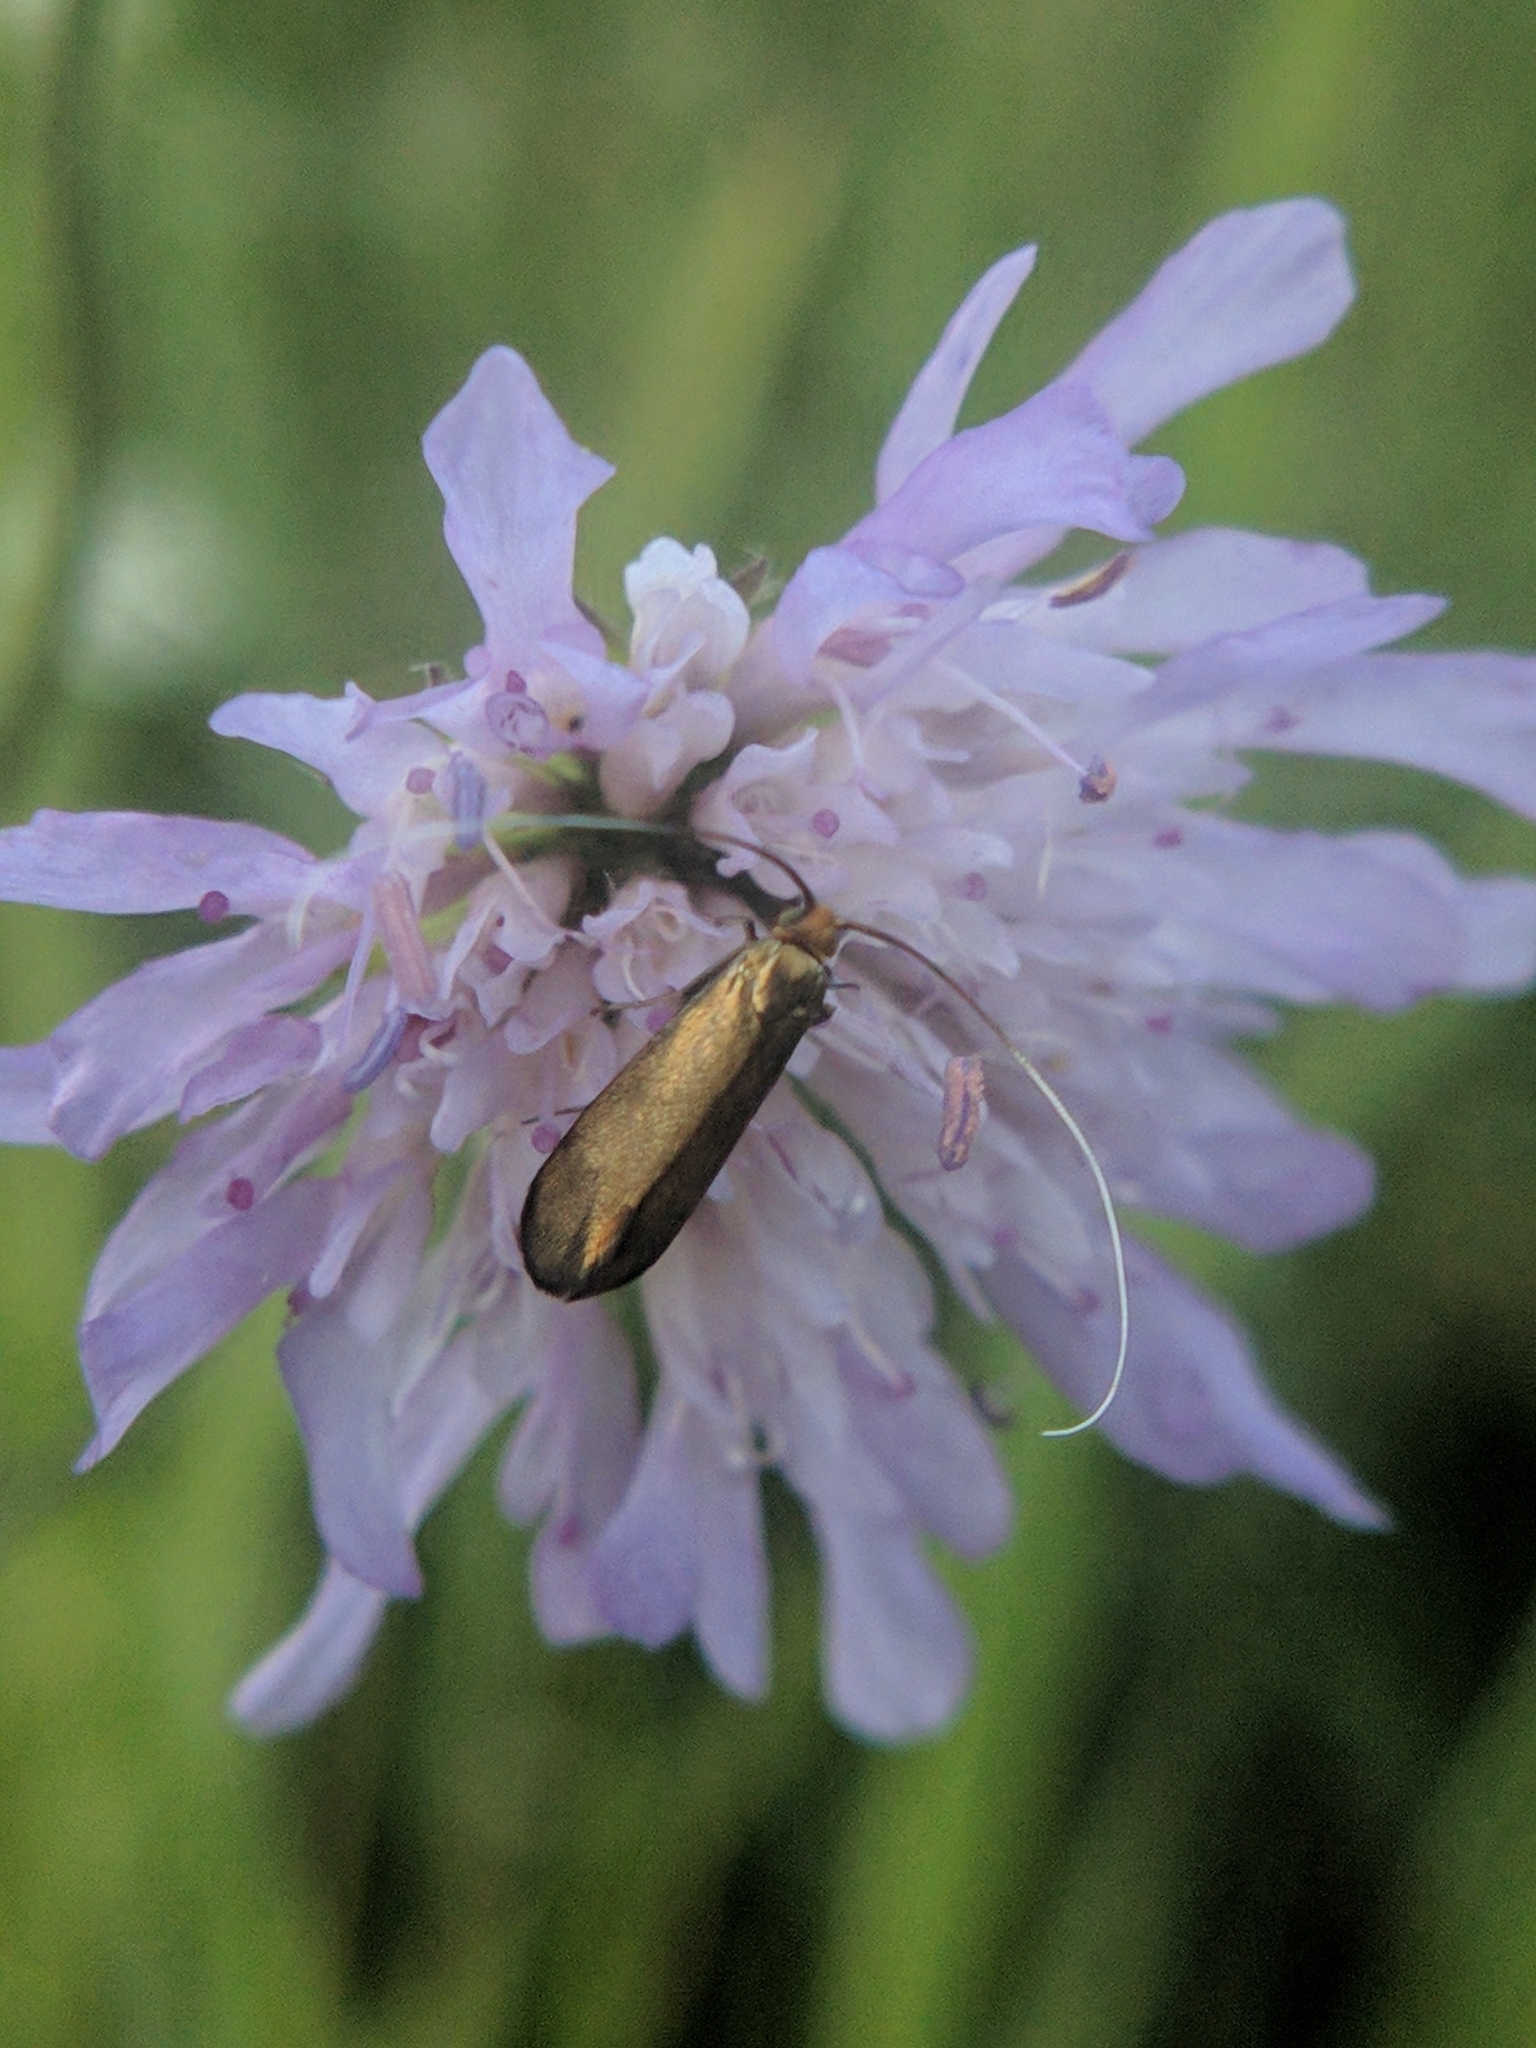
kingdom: Animalia
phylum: Arthropoda
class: Insecta
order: Lepidoptera
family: Adelidae
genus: Nemophora
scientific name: Nemophora metallica
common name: Brassy long-horn
